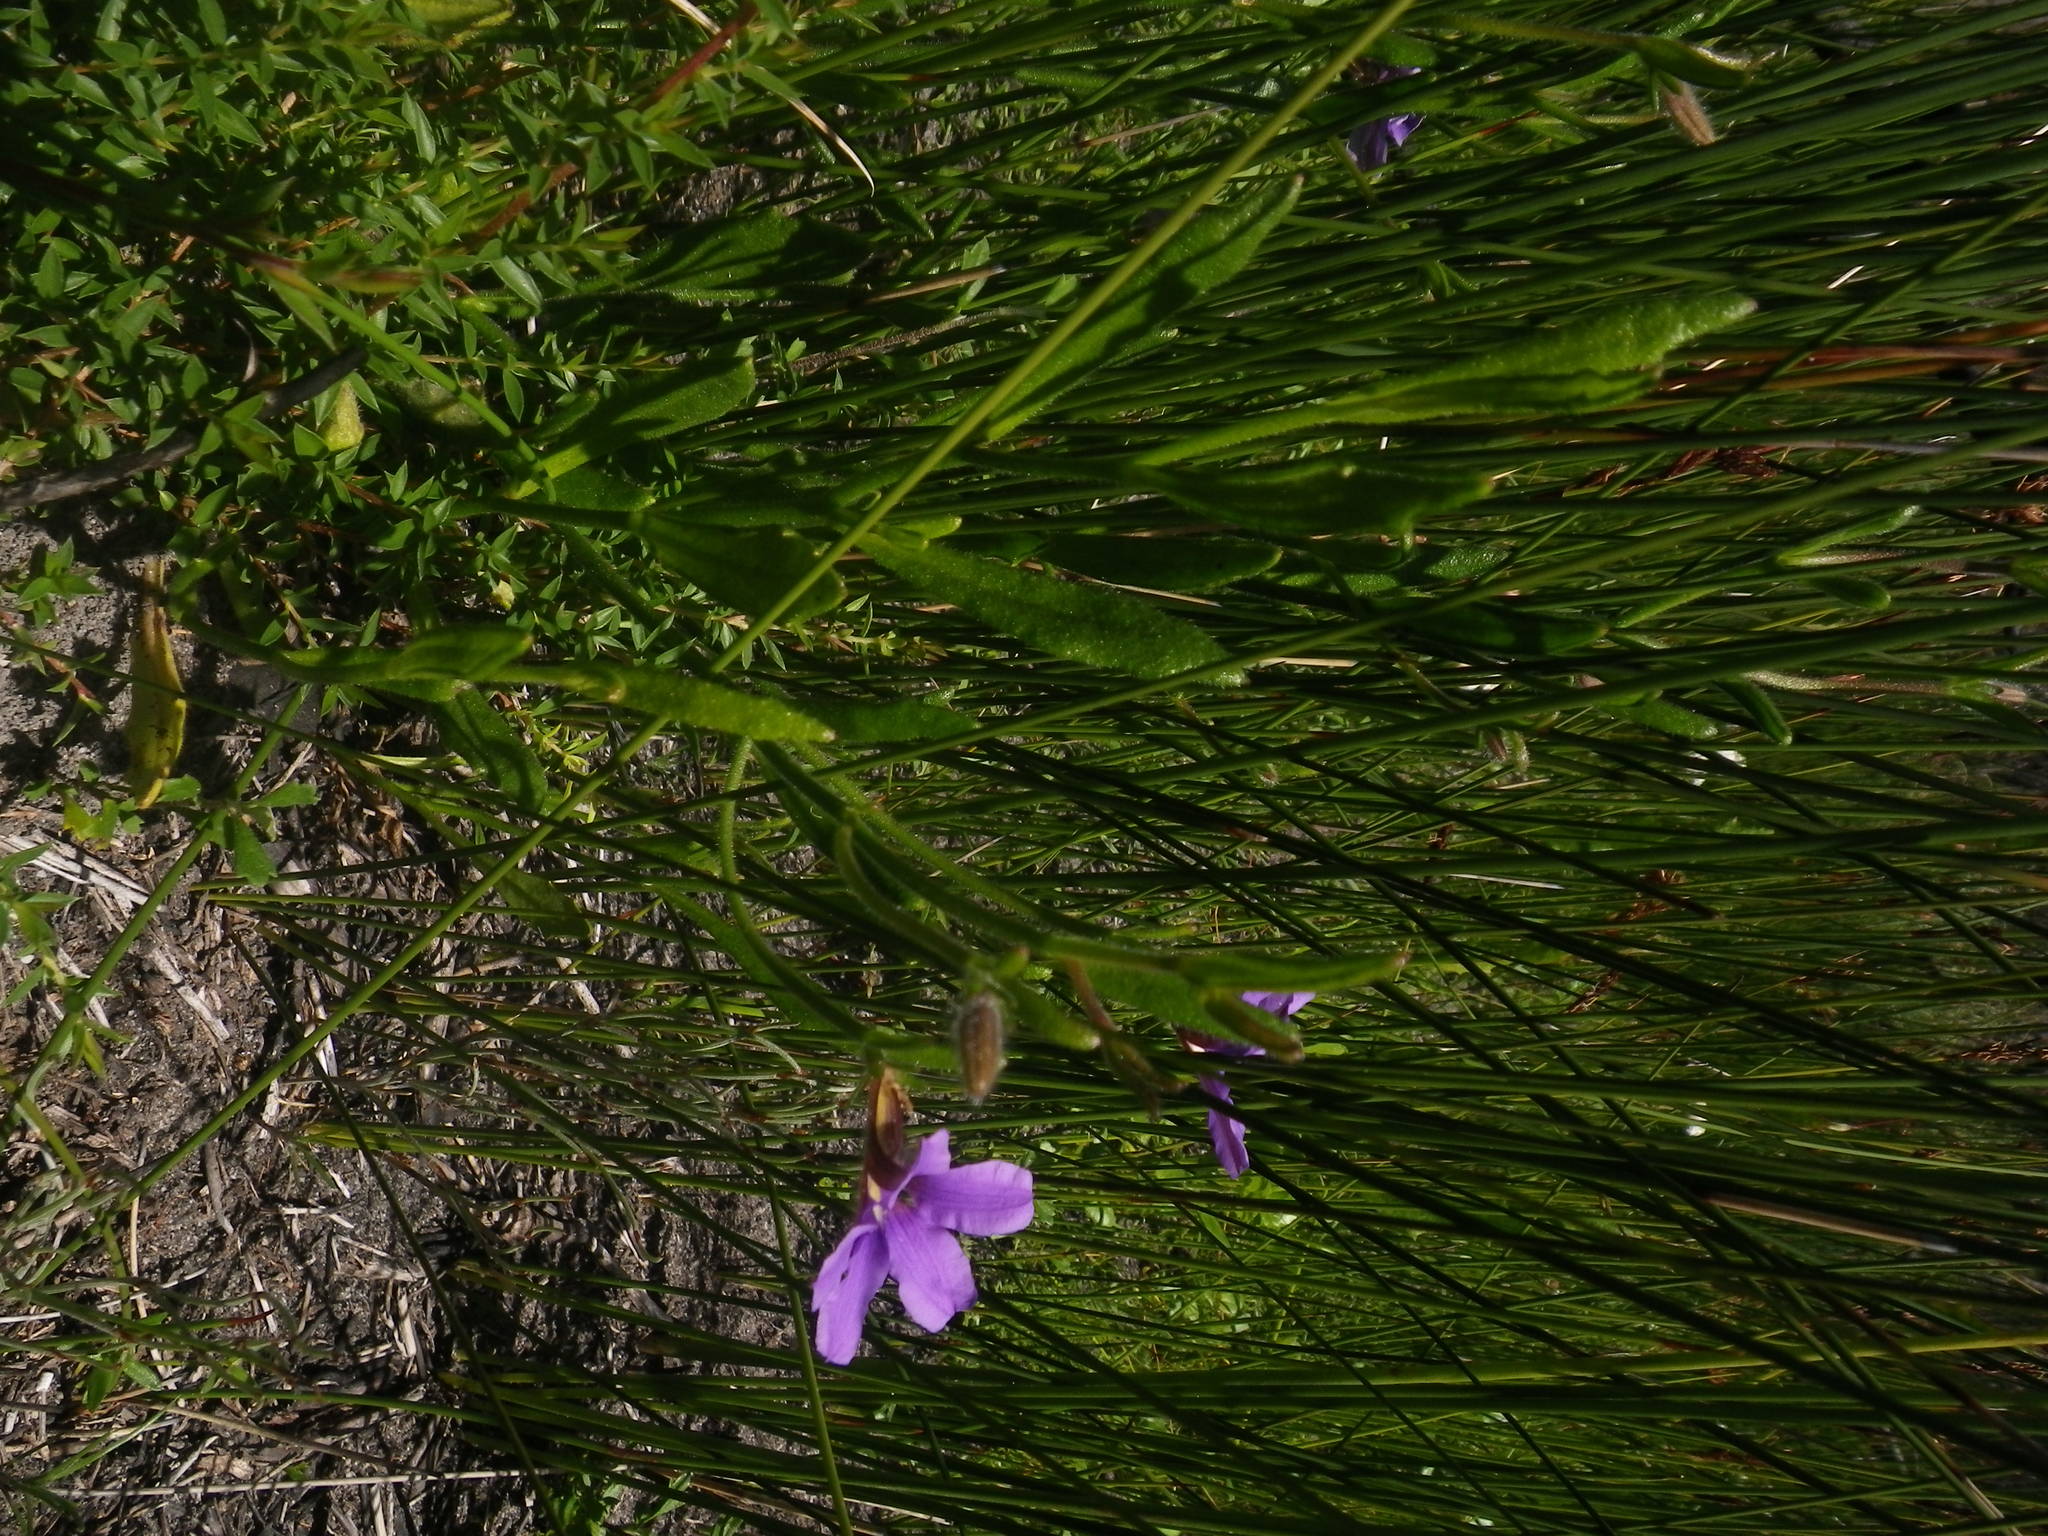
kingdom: Plantae
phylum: Tracheophyta
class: Magnoliopsida
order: Asterales
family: Goodeniaceae
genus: Scaevola
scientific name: Scaevola ramosissima
